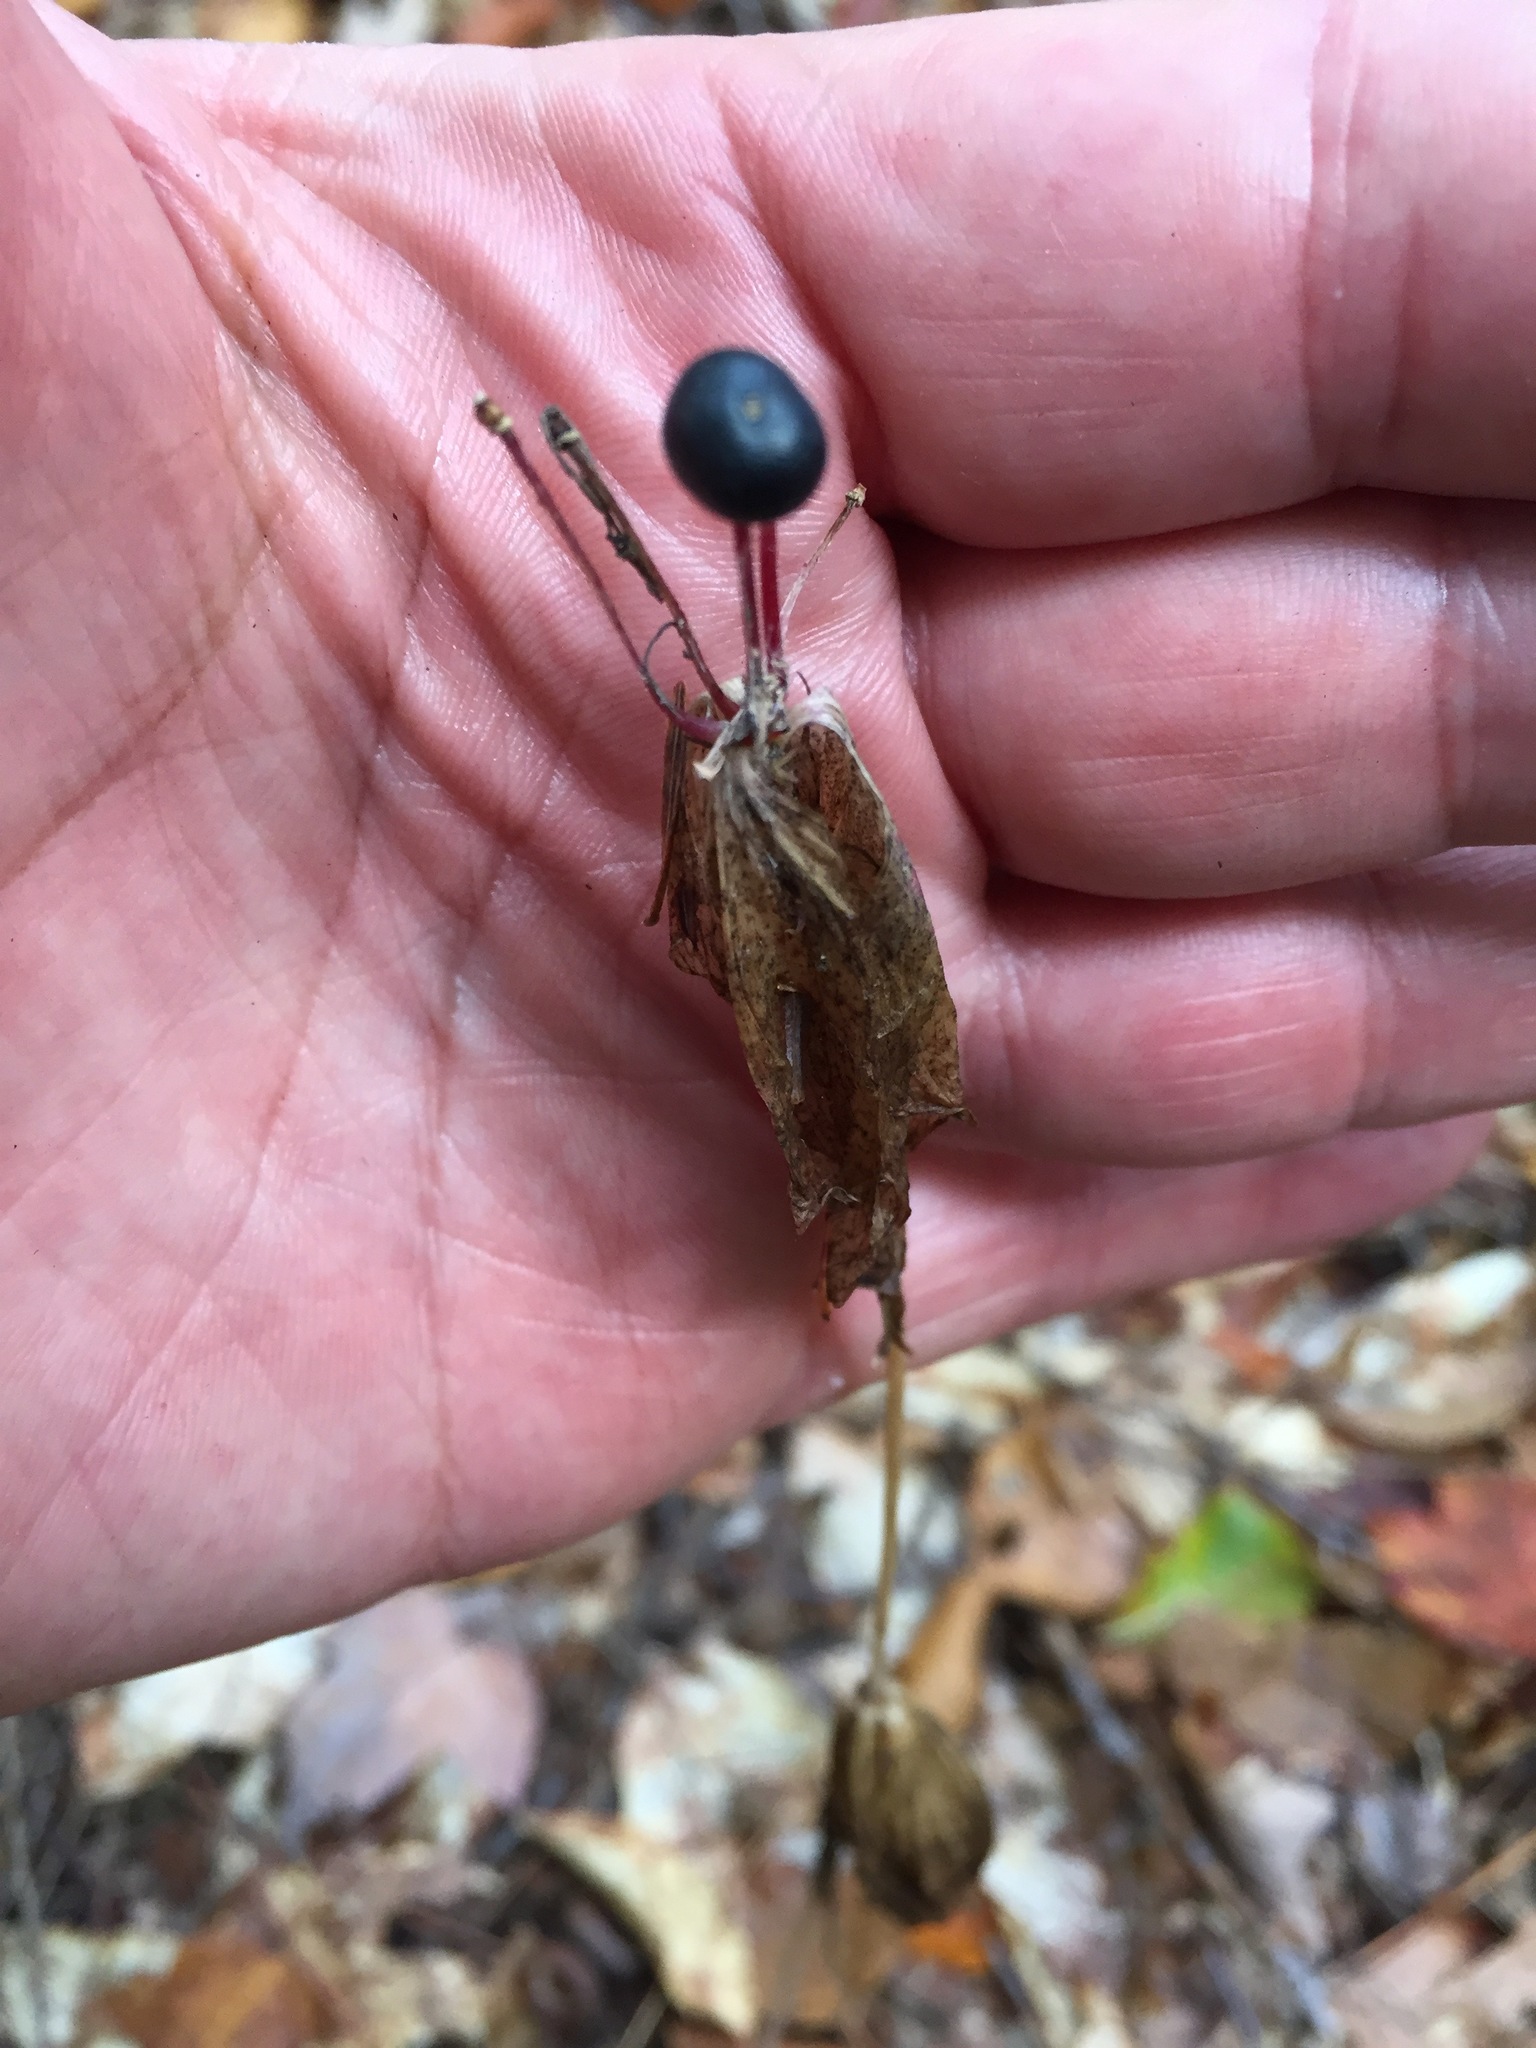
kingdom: Plantae
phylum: Tracheophyta
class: Liliopsida
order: Liliales
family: Liliaceae
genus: Medeola
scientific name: Medeola virginiana
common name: Indian cucumber-root
